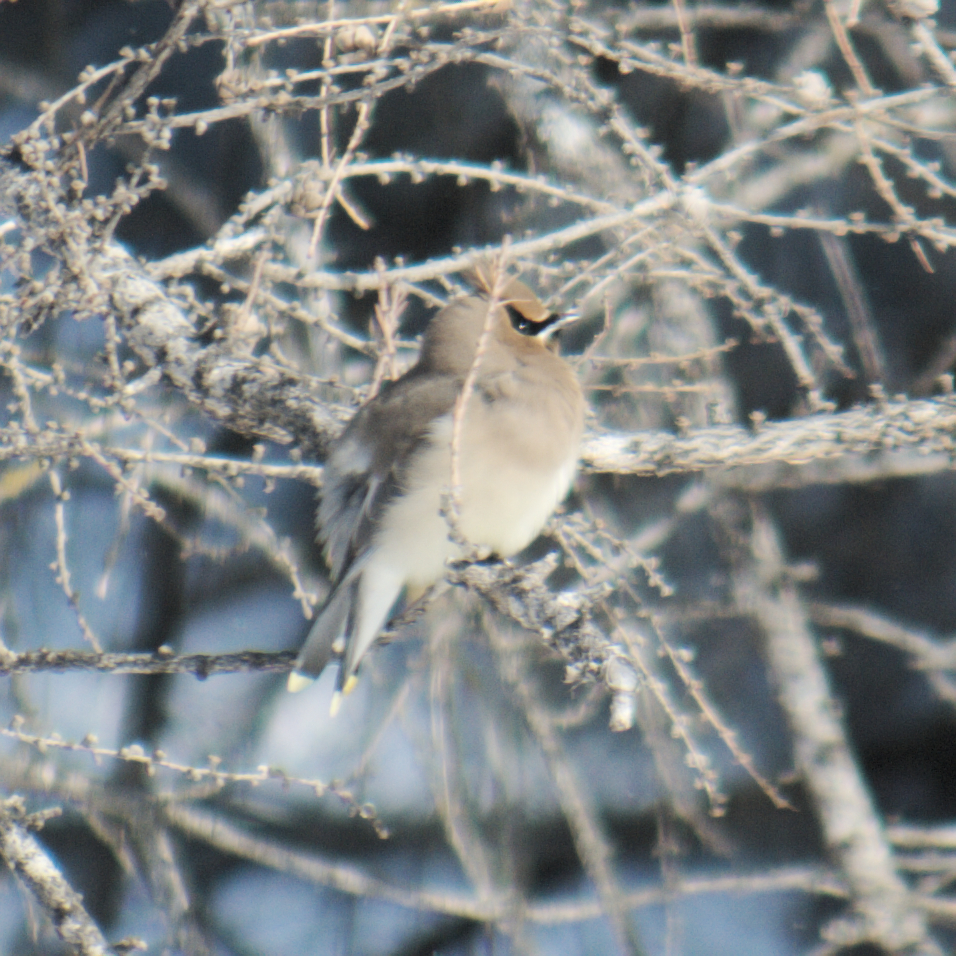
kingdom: Animalia
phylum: Chordata
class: Aves
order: Passeriformes
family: Bombycillidae
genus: Bombycilla
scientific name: Bombycilla cedrorum
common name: Cedar waxwing
